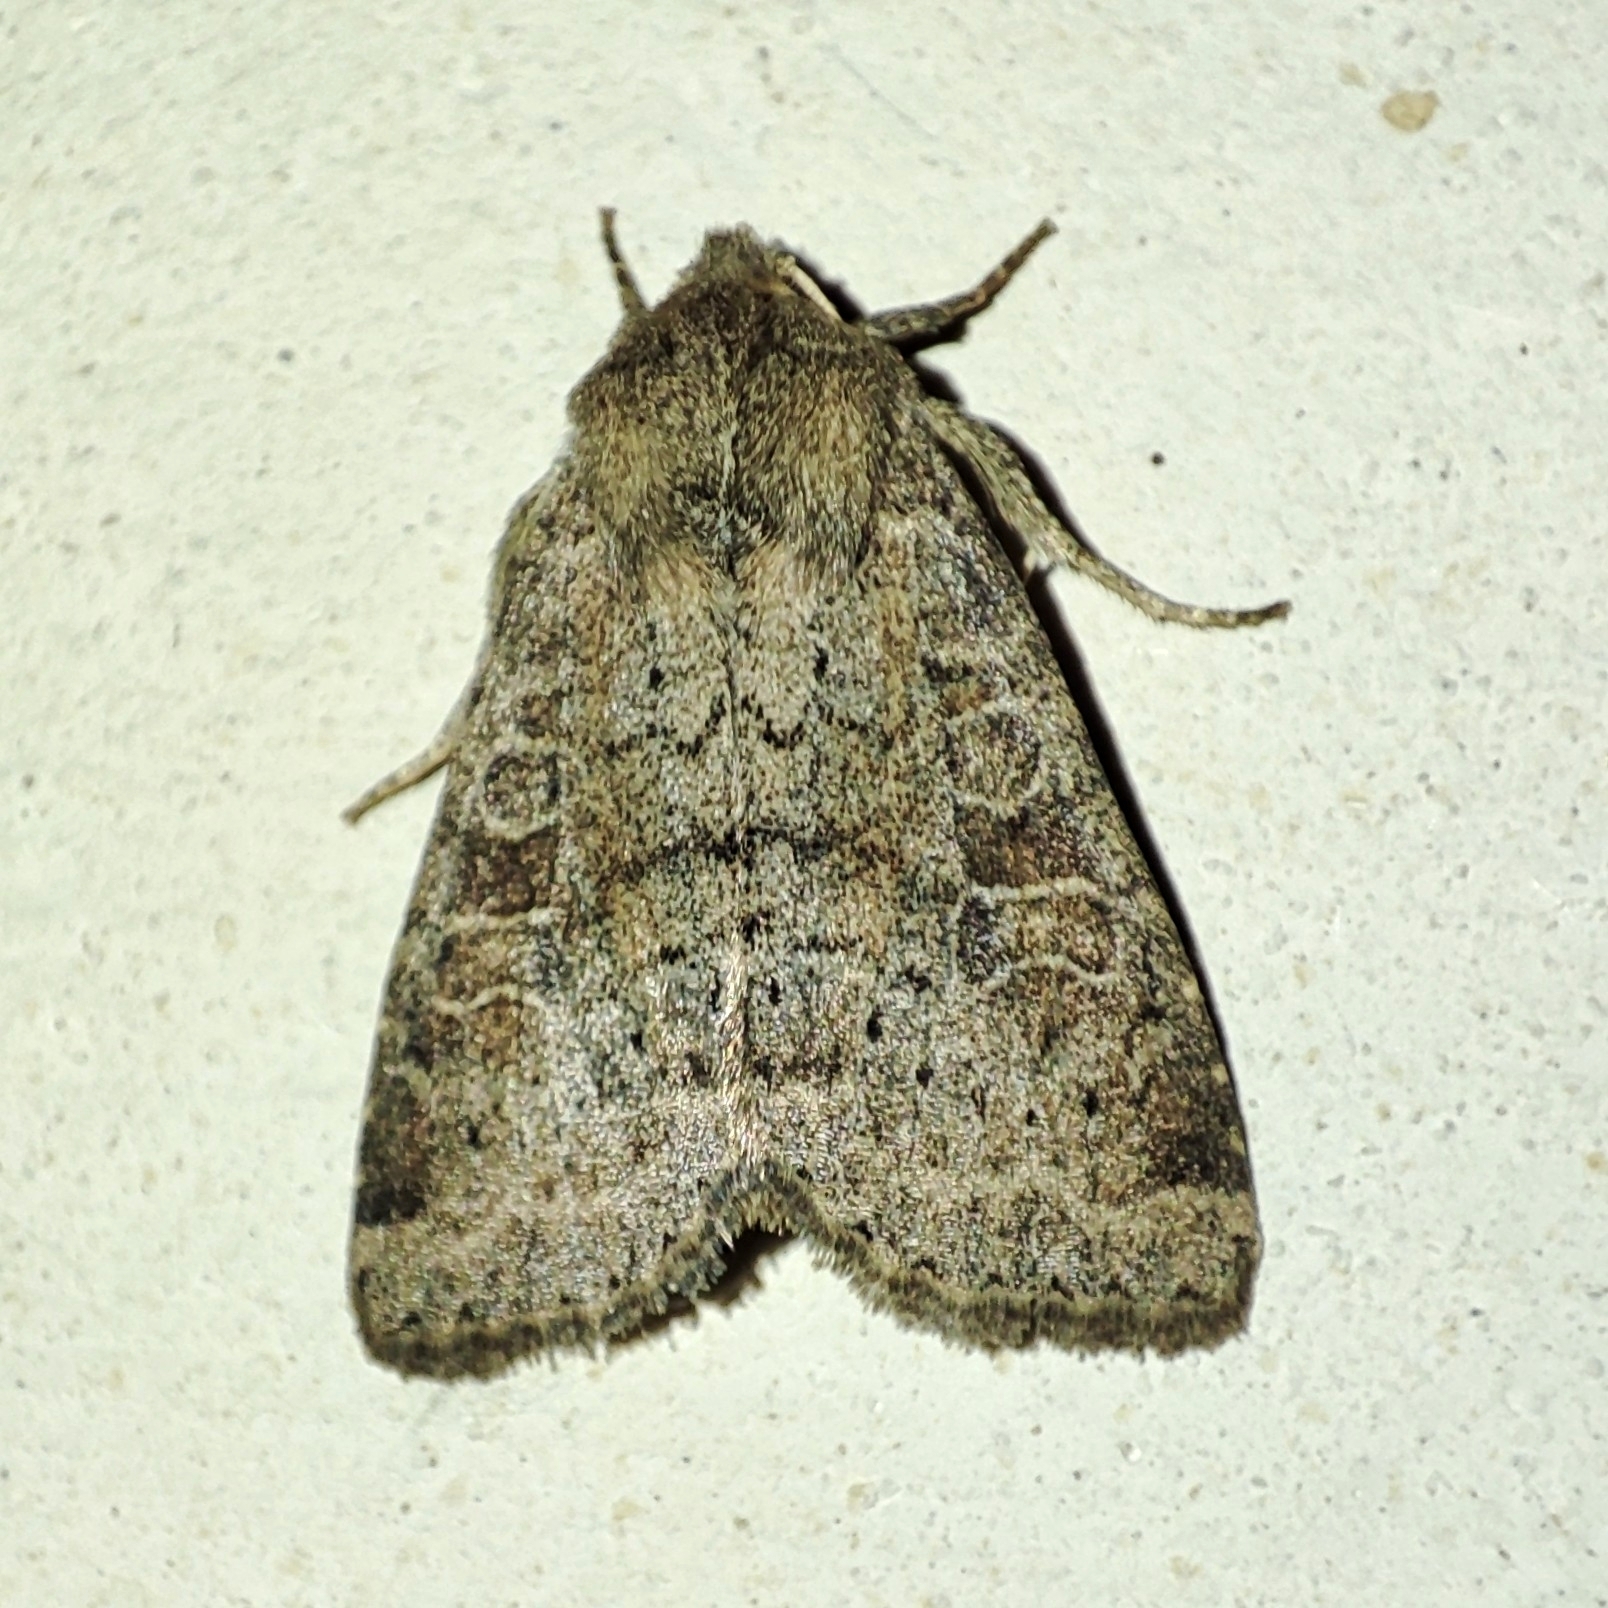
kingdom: Animalia
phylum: Arthropoda
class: Insecta
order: Lepidoptera
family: Noctuidae
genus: Parastichtis
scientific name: Parastichtis suspecta
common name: Suspected
